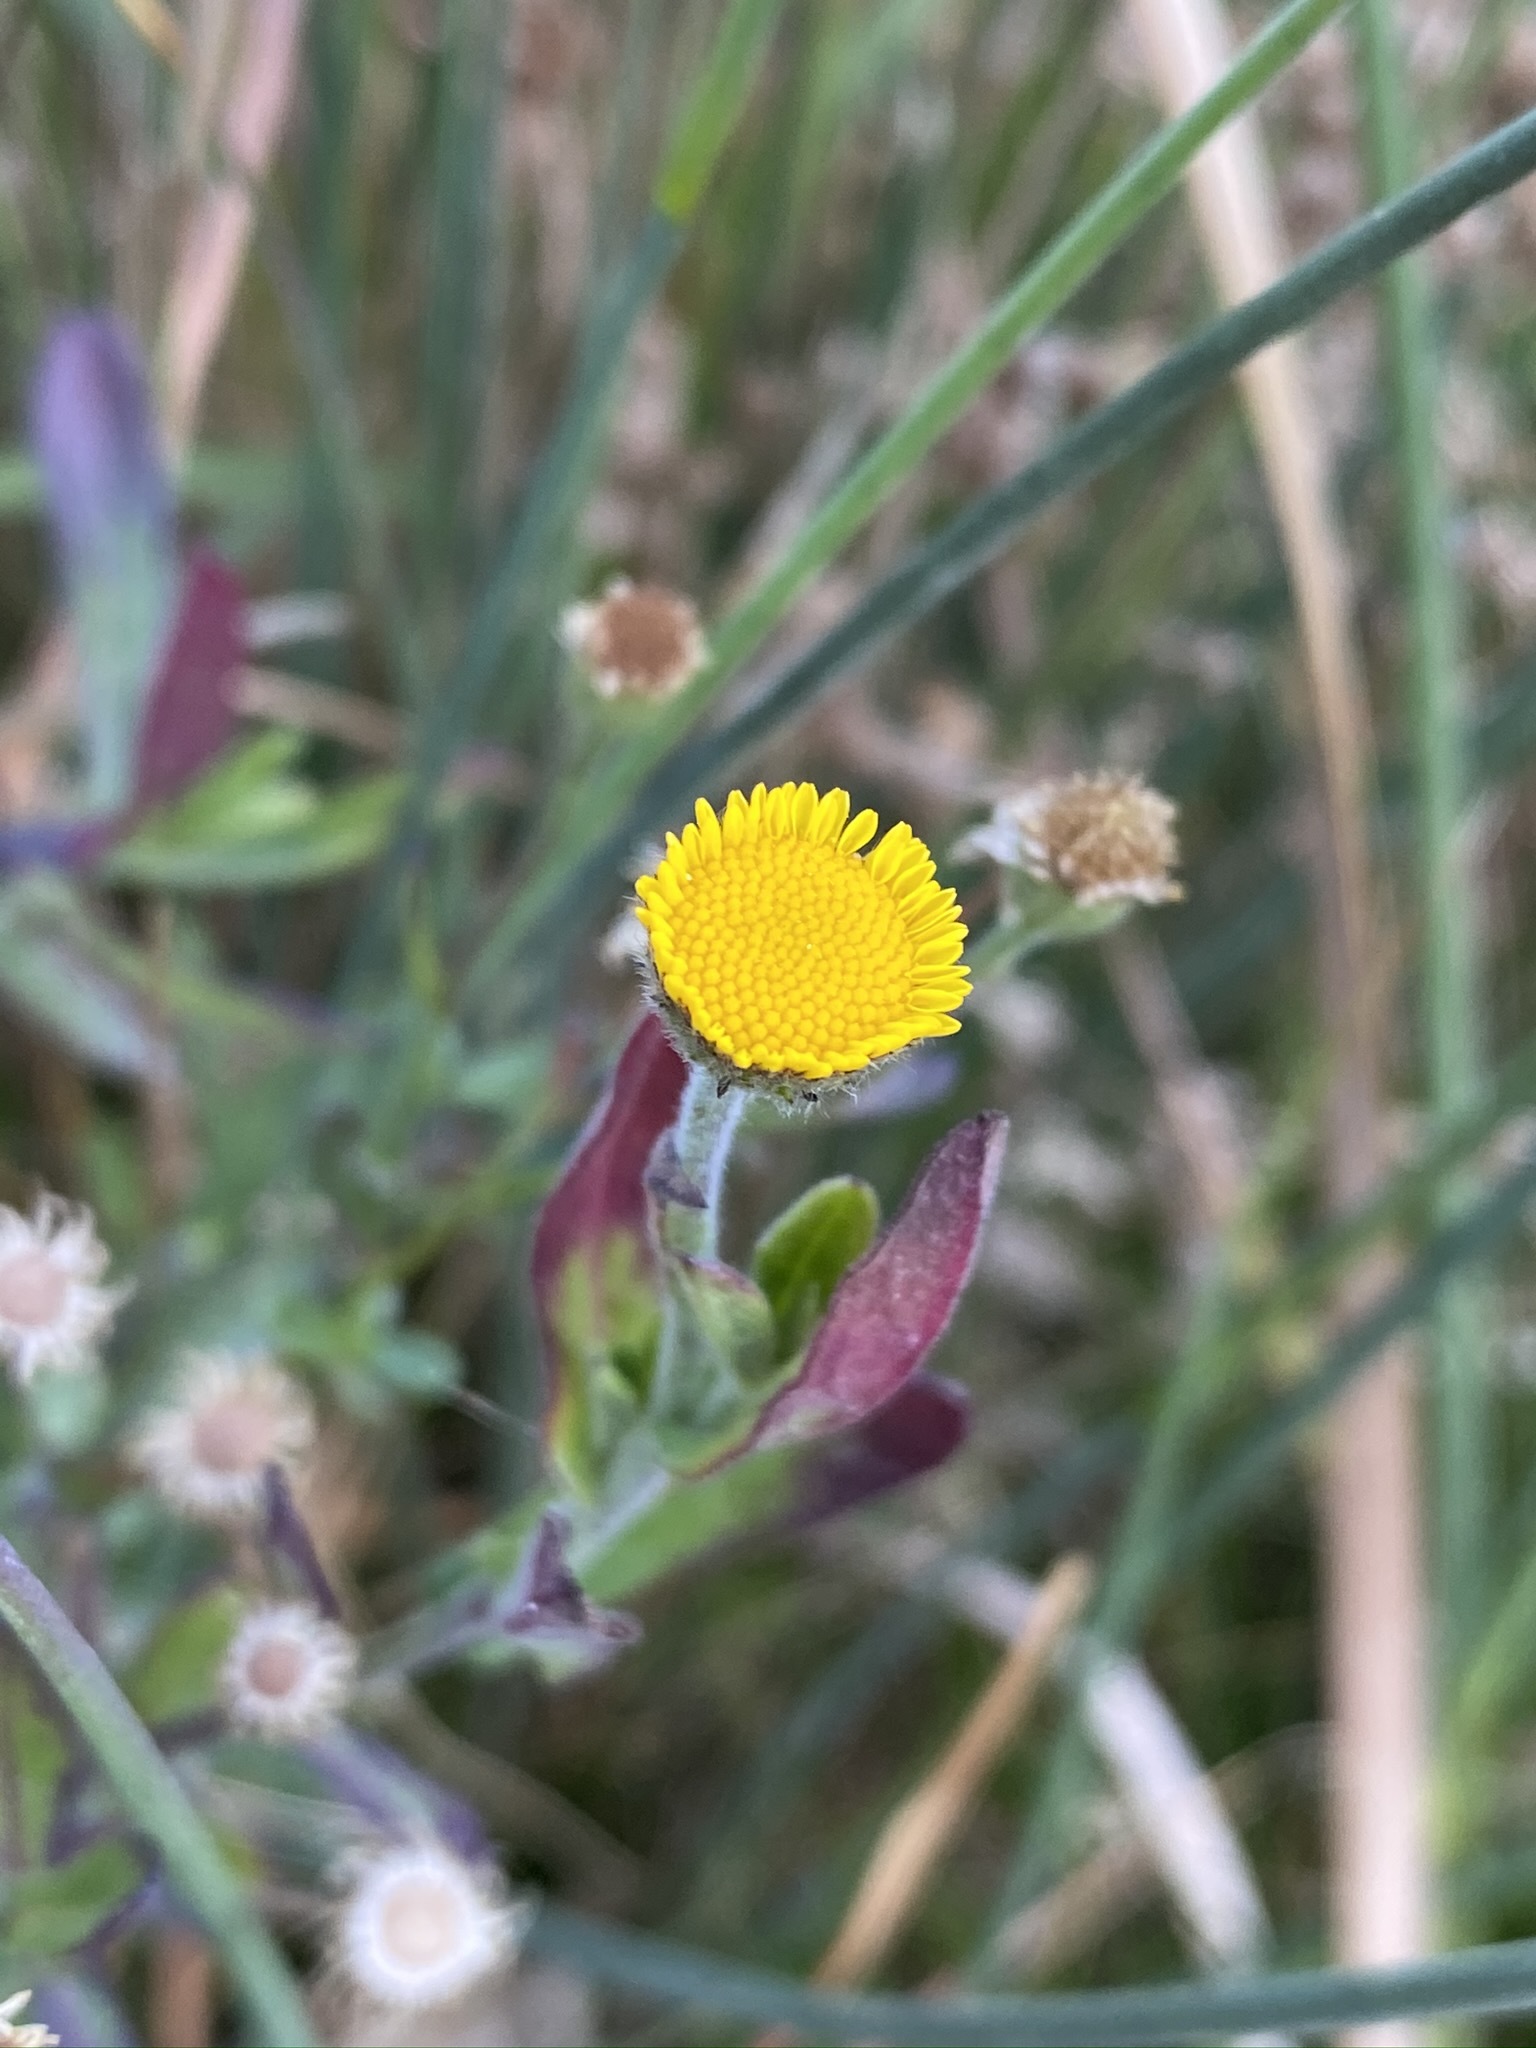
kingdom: Plantae
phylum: Tracheophyta
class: Magnoliopsida
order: Asterales
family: Asteraceae
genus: Pulicaria
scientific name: Pulicaria paludosa
